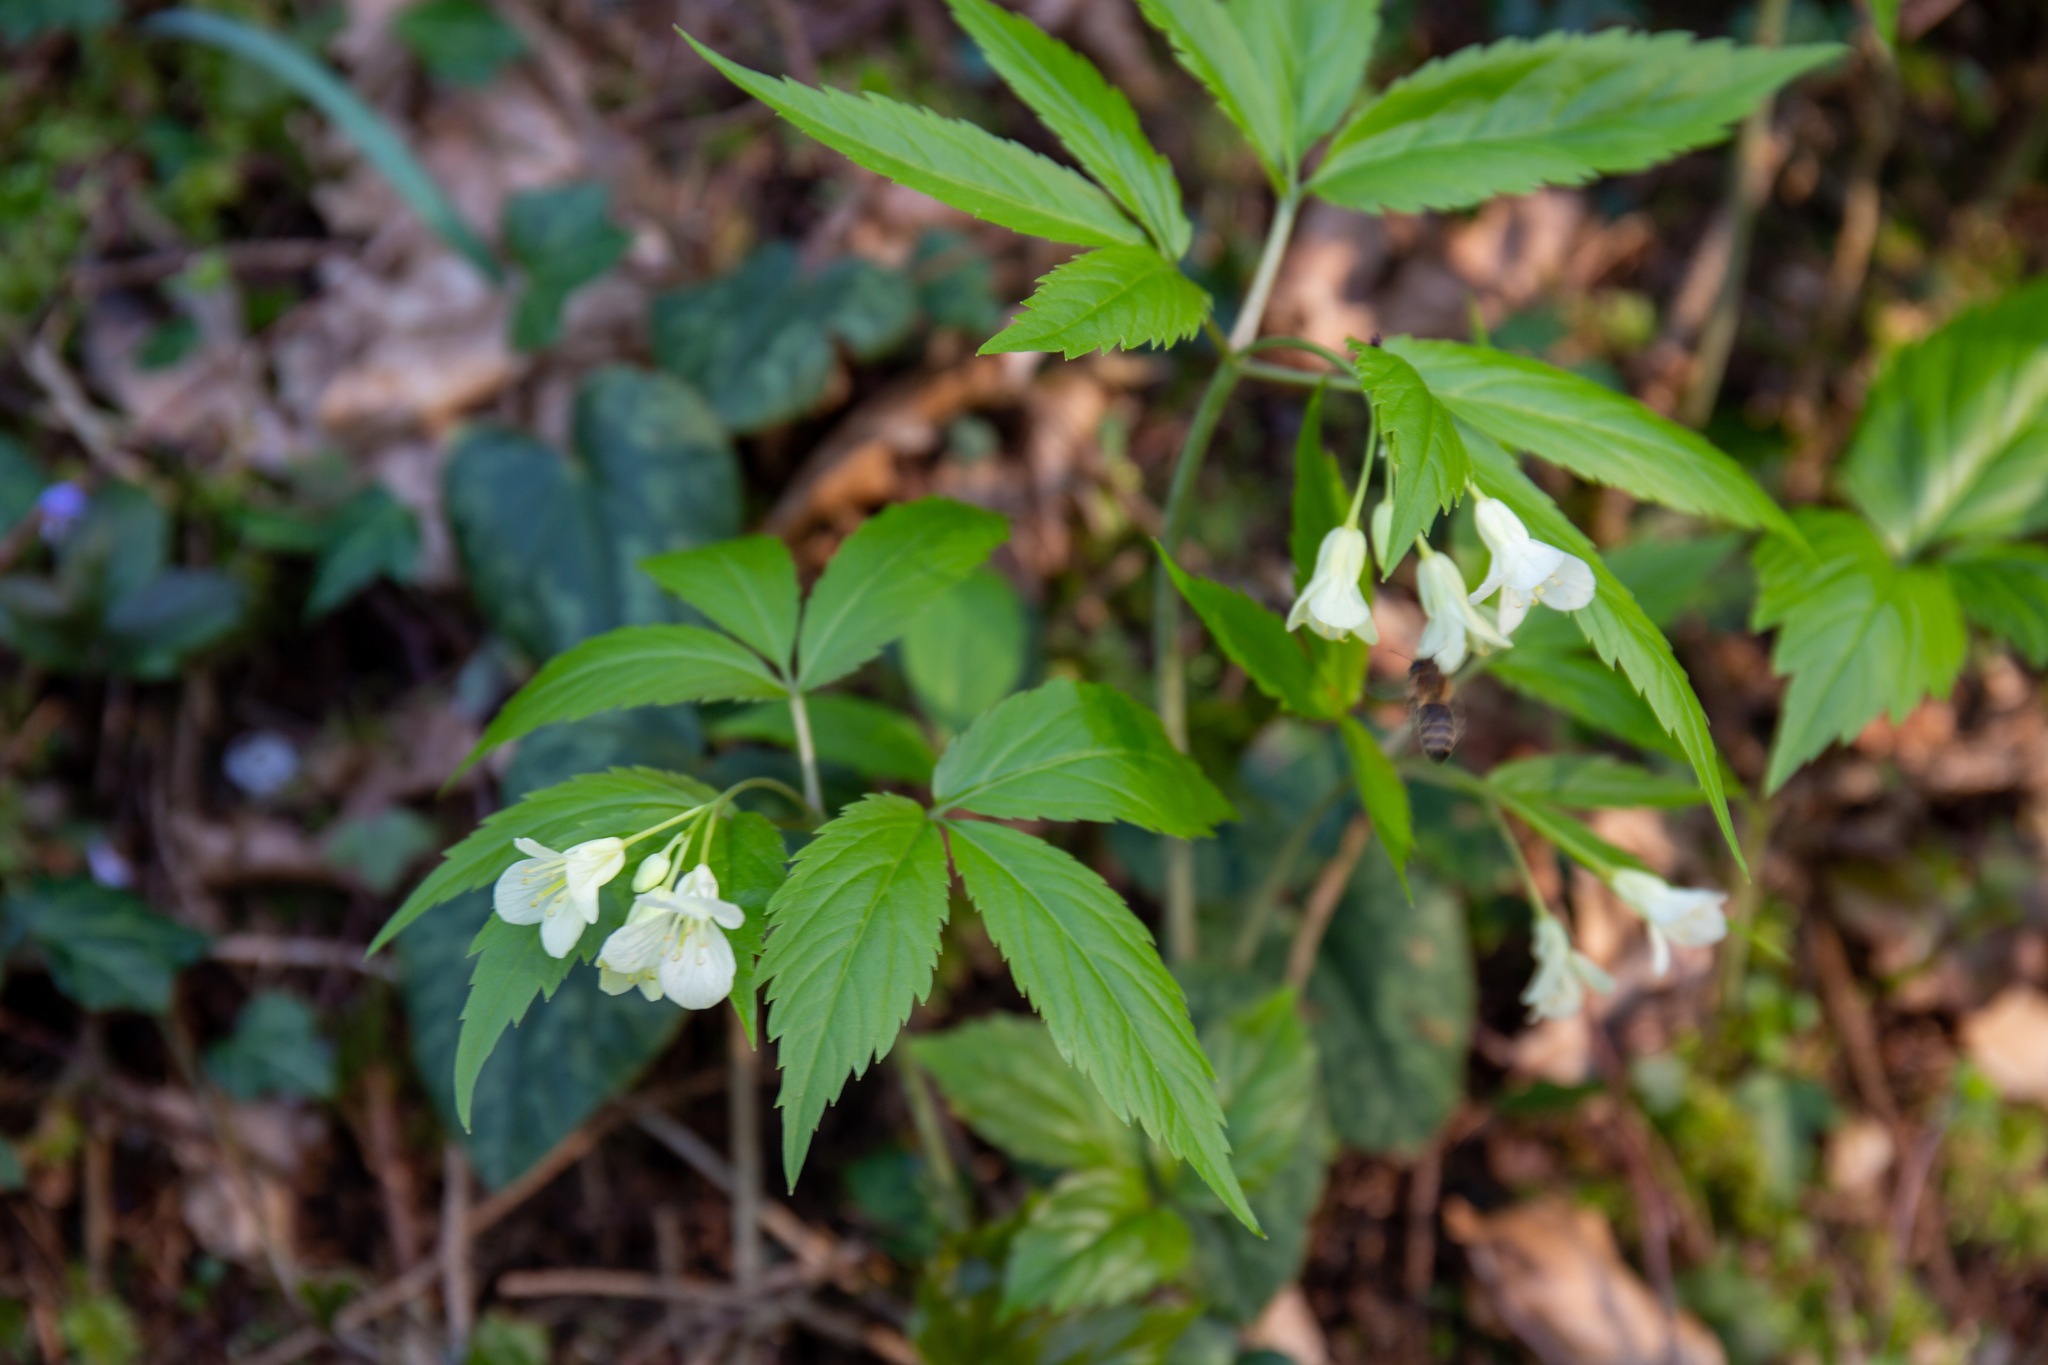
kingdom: Plantae
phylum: Tracheophyta
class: Magnoliopsida
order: Brassicales
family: Brassicaceae
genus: Cardamine
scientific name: Cardamine enneaphyllos
